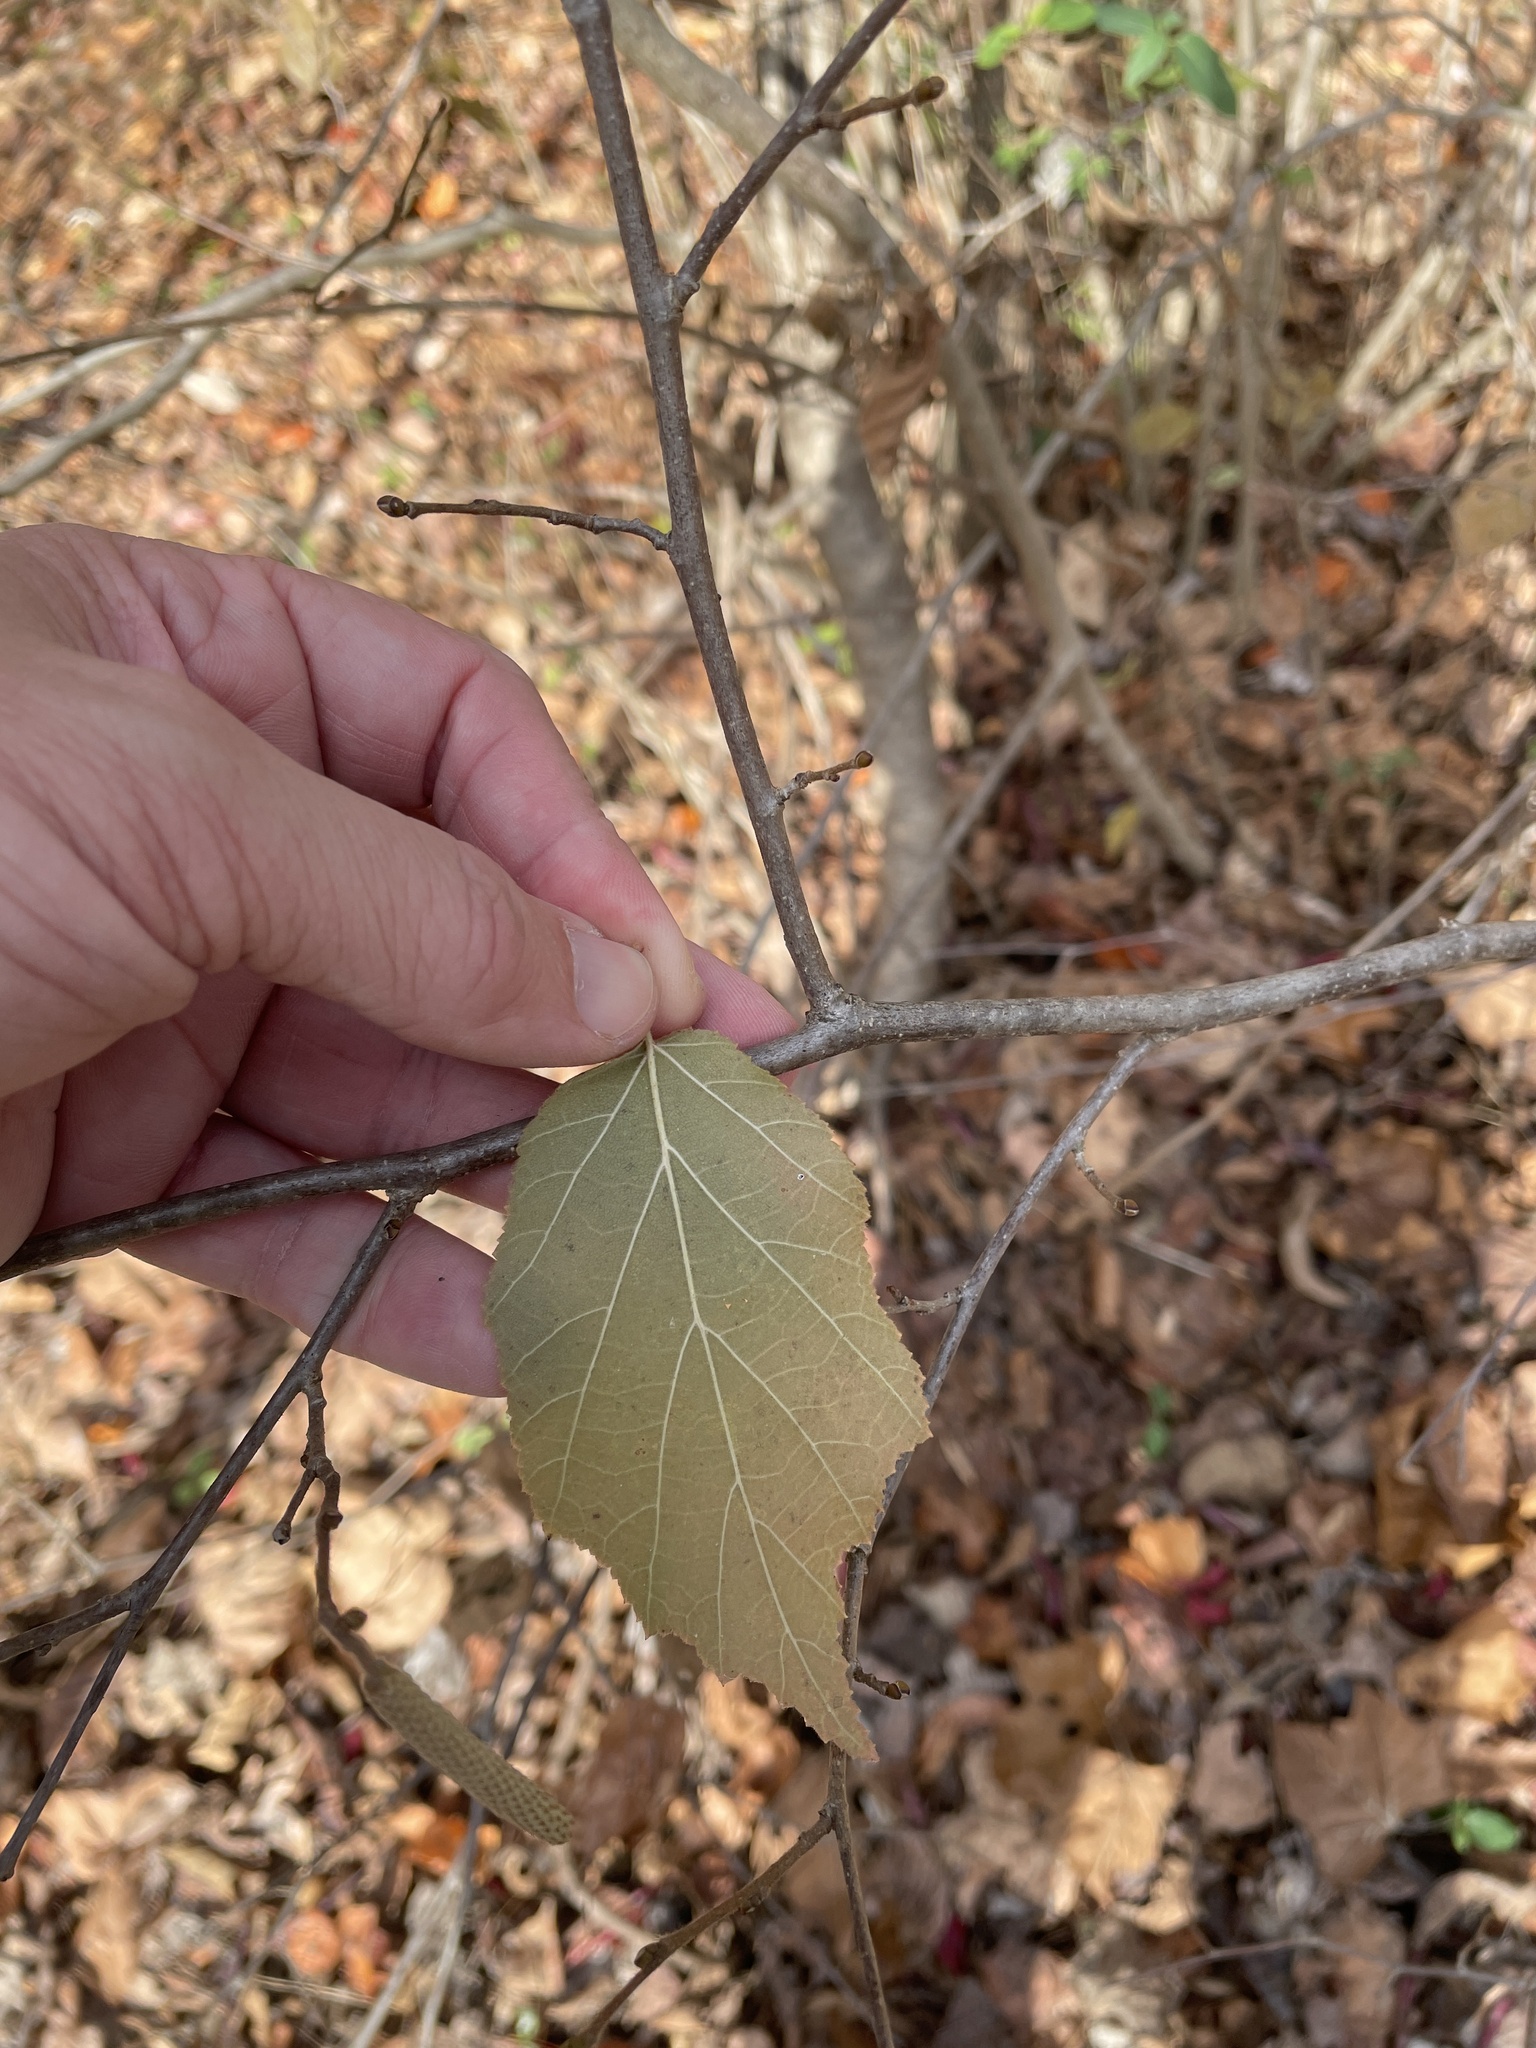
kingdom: Plantae
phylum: Tracheophyta
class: Magnoliopsida
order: Fagales
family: Betulaceae
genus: Corylus
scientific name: Corylus americana
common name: American hazel
